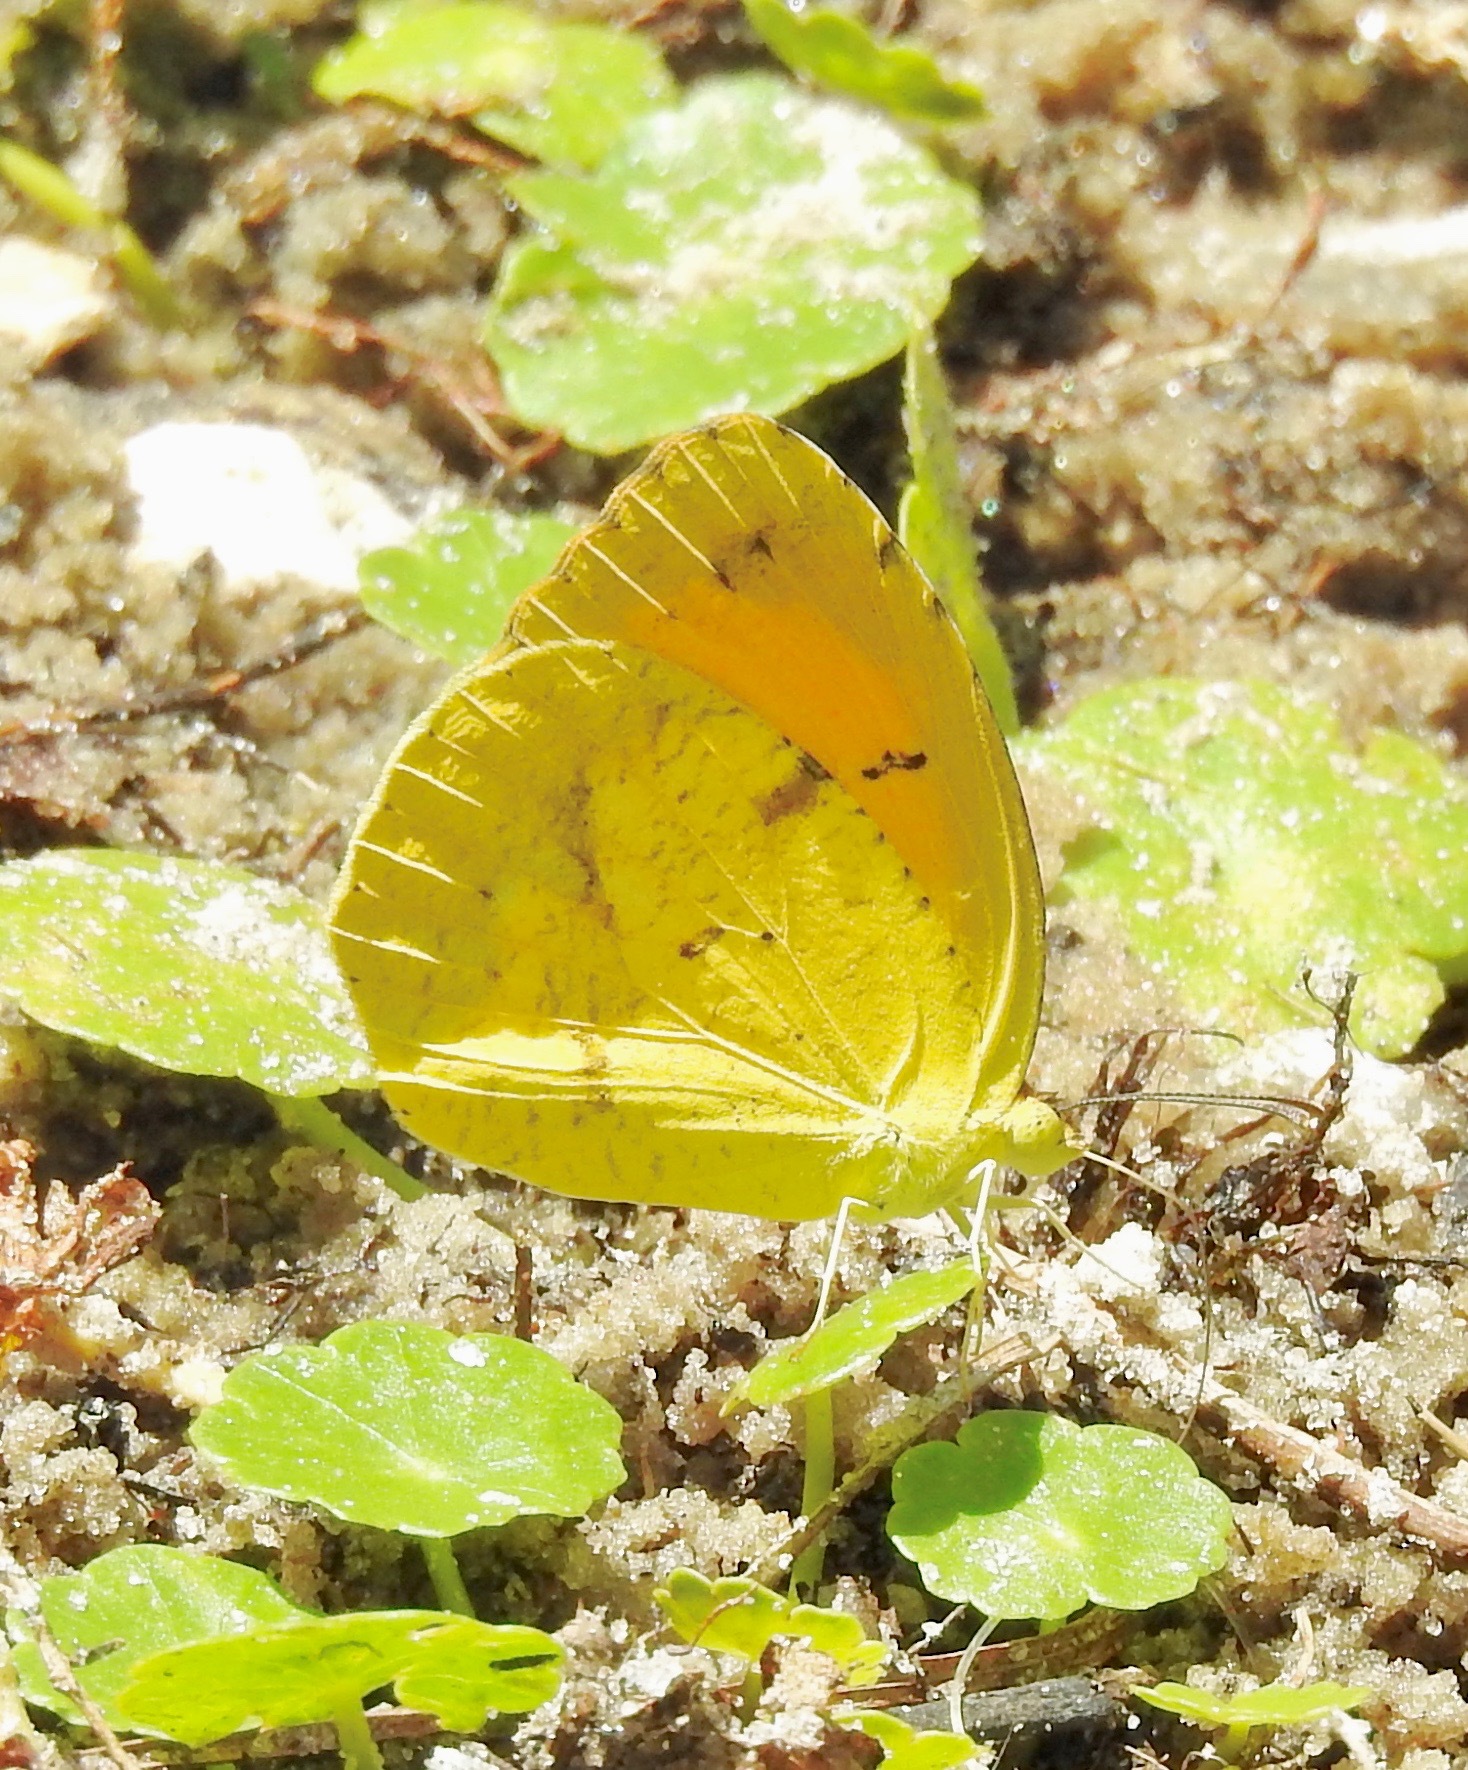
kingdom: Animalia
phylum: Arthropoda
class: Insecta
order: Lepidoptera
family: Pieridae
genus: Abaeis
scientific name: Abaeis nicippe
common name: Sleepy orange
